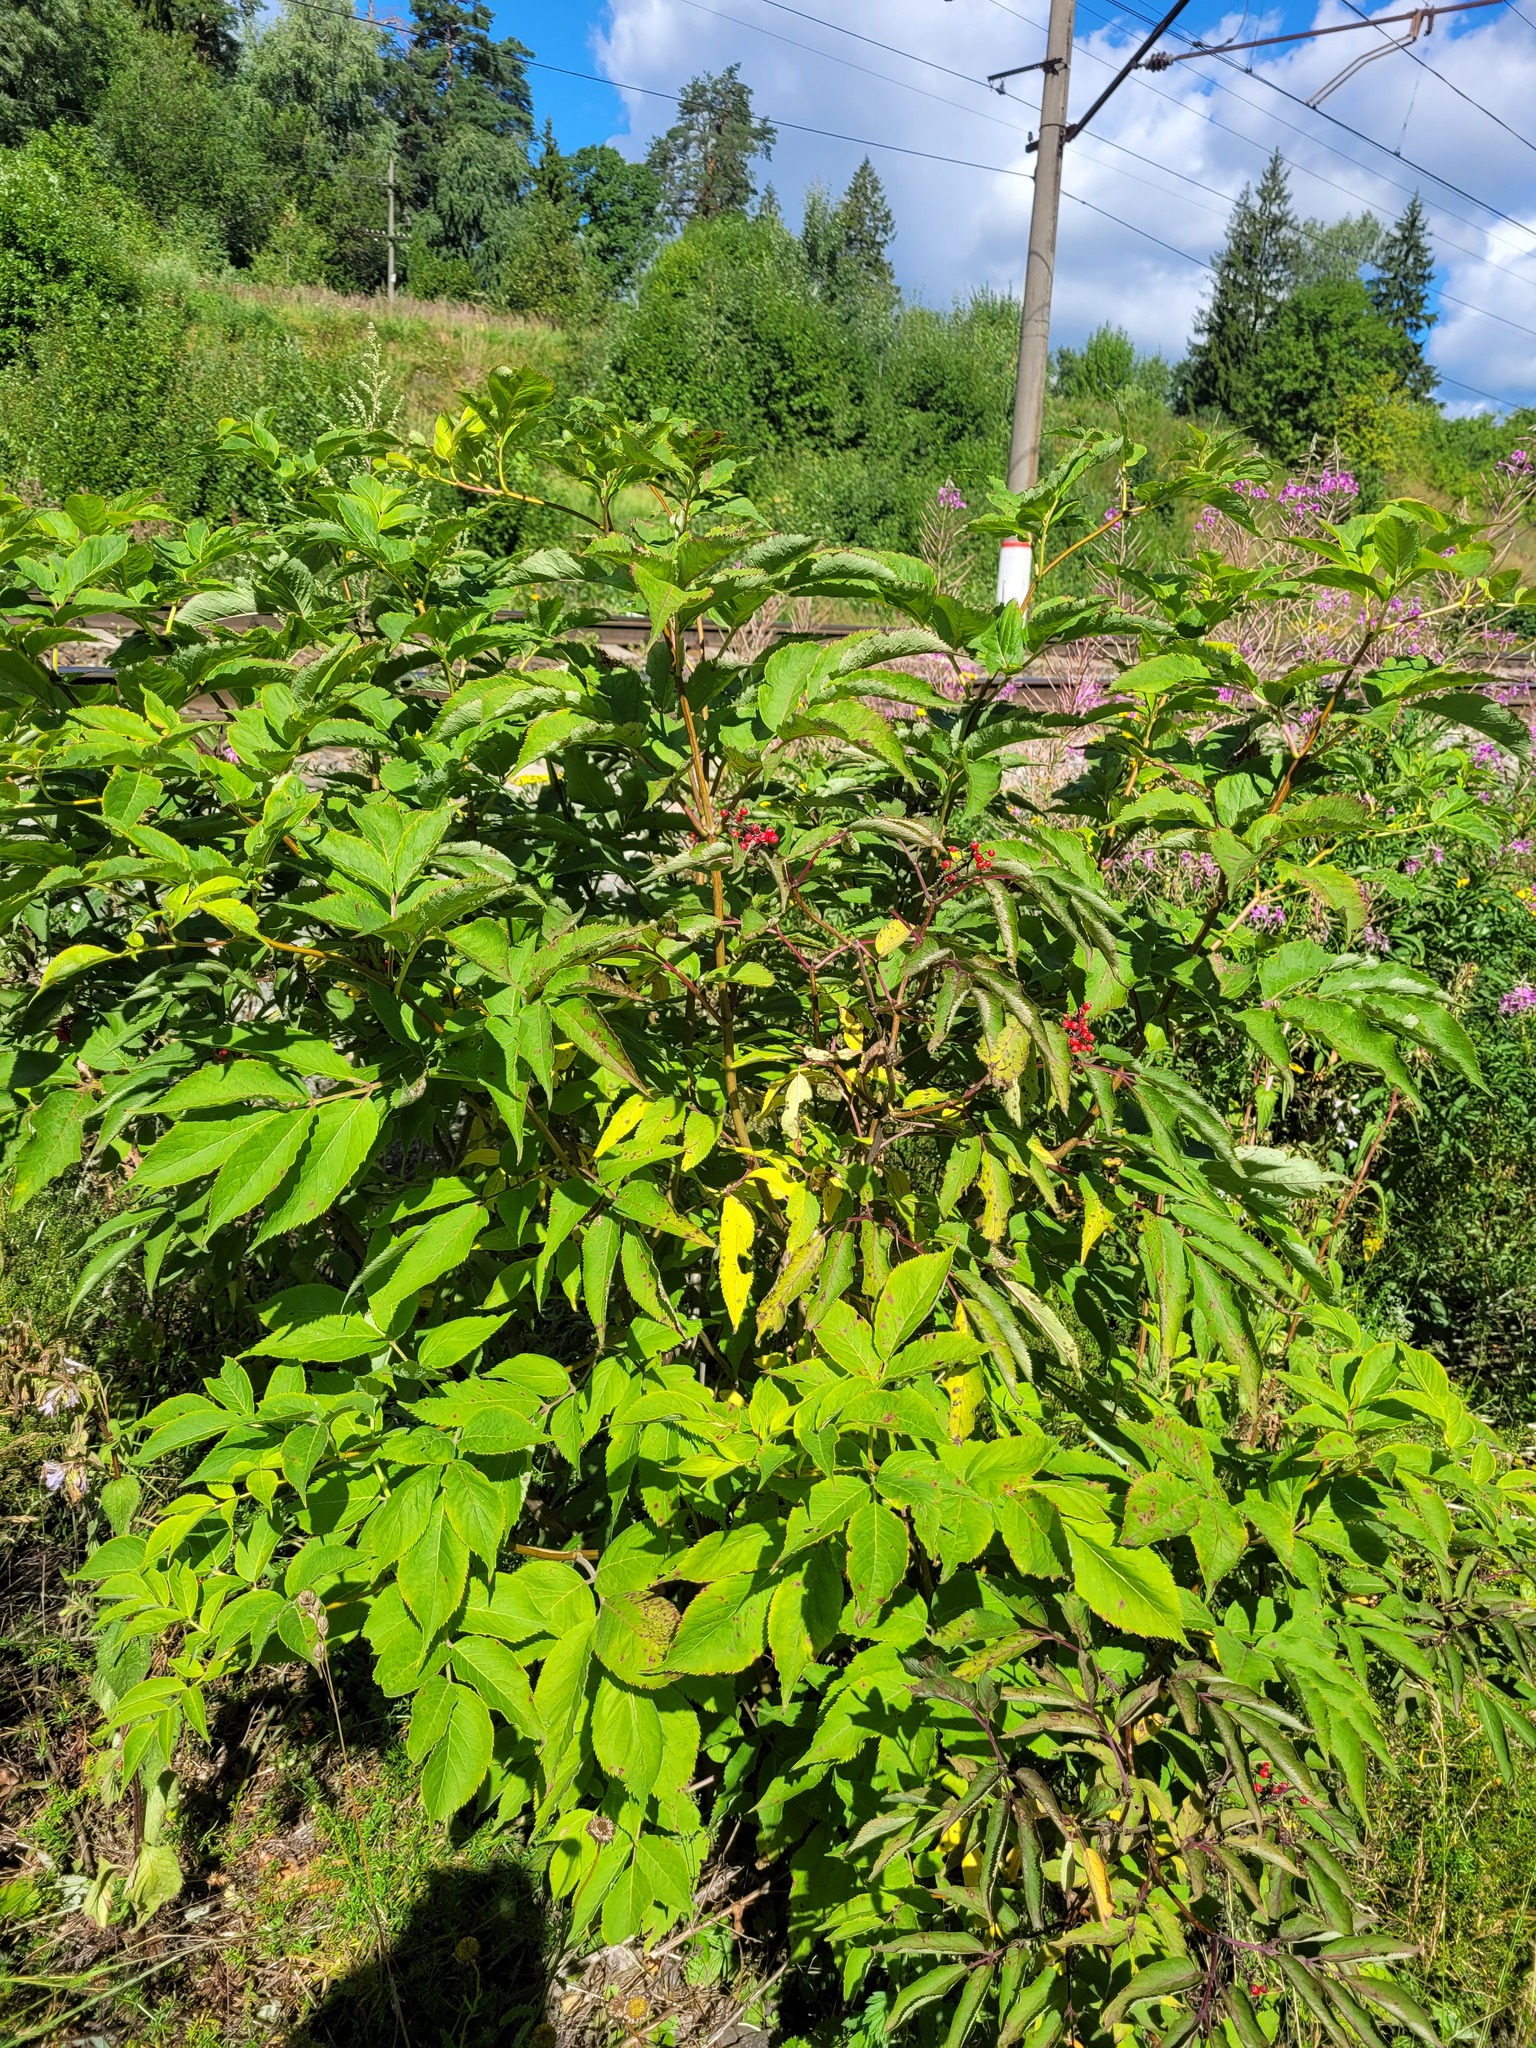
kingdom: Plantae
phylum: Tracheophyta
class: Magnoliopsida
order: Dipsacales
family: Viburnaceae
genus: Sambucus
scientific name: Sambucus racemosa
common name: Red-berried elder
